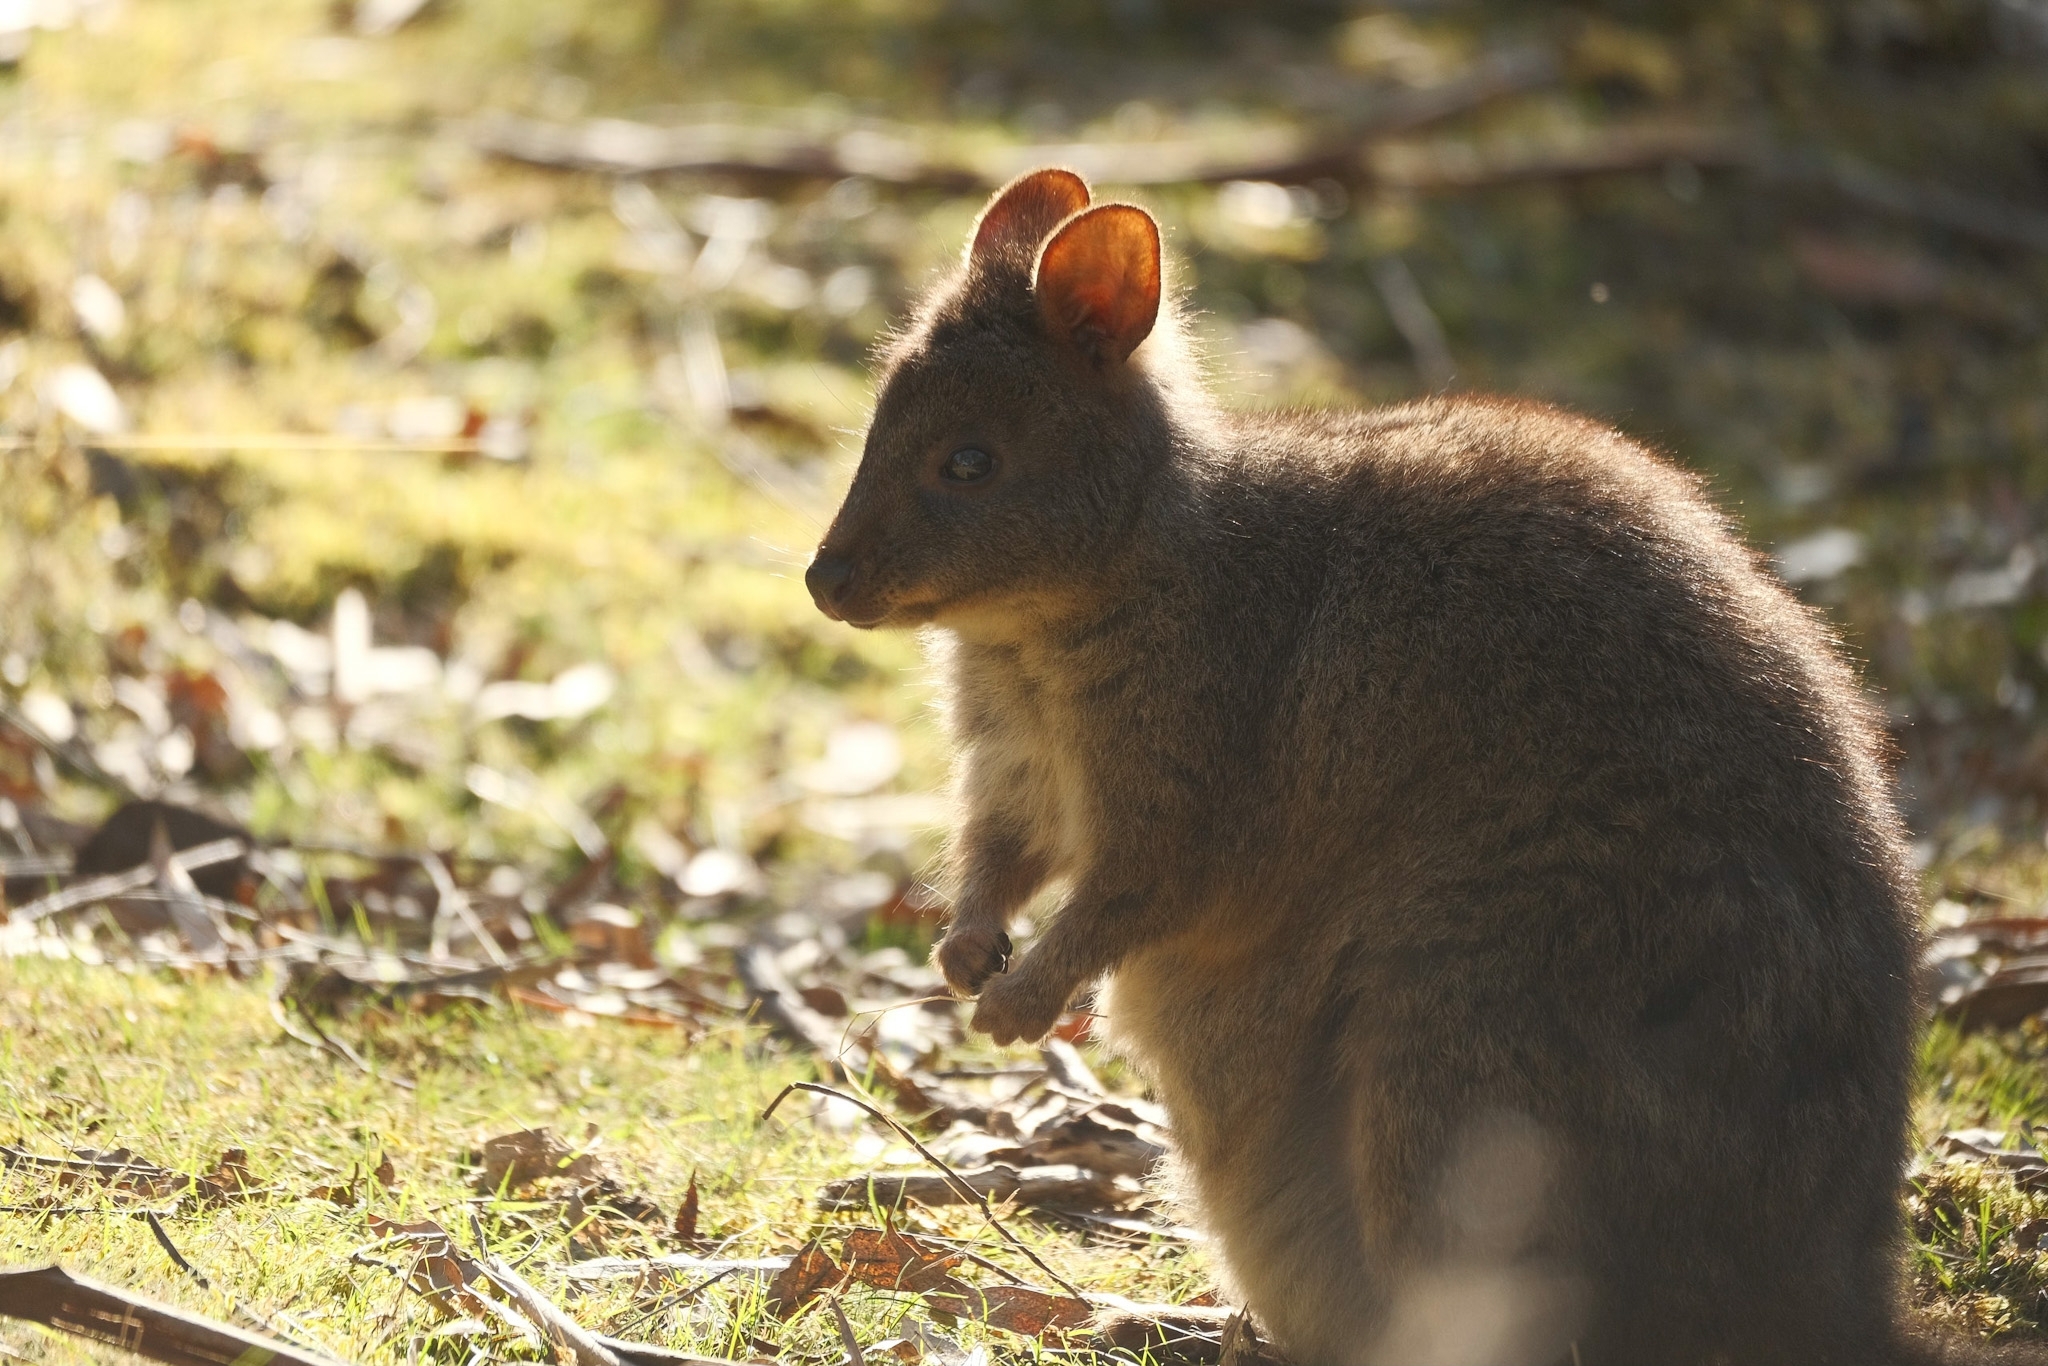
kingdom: Animalia
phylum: Chordata
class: Mammalia
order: Diprotodontia
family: Macropodidae
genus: Thylogale
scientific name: Thylogale billardierii
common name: Tasmanian pademelon
